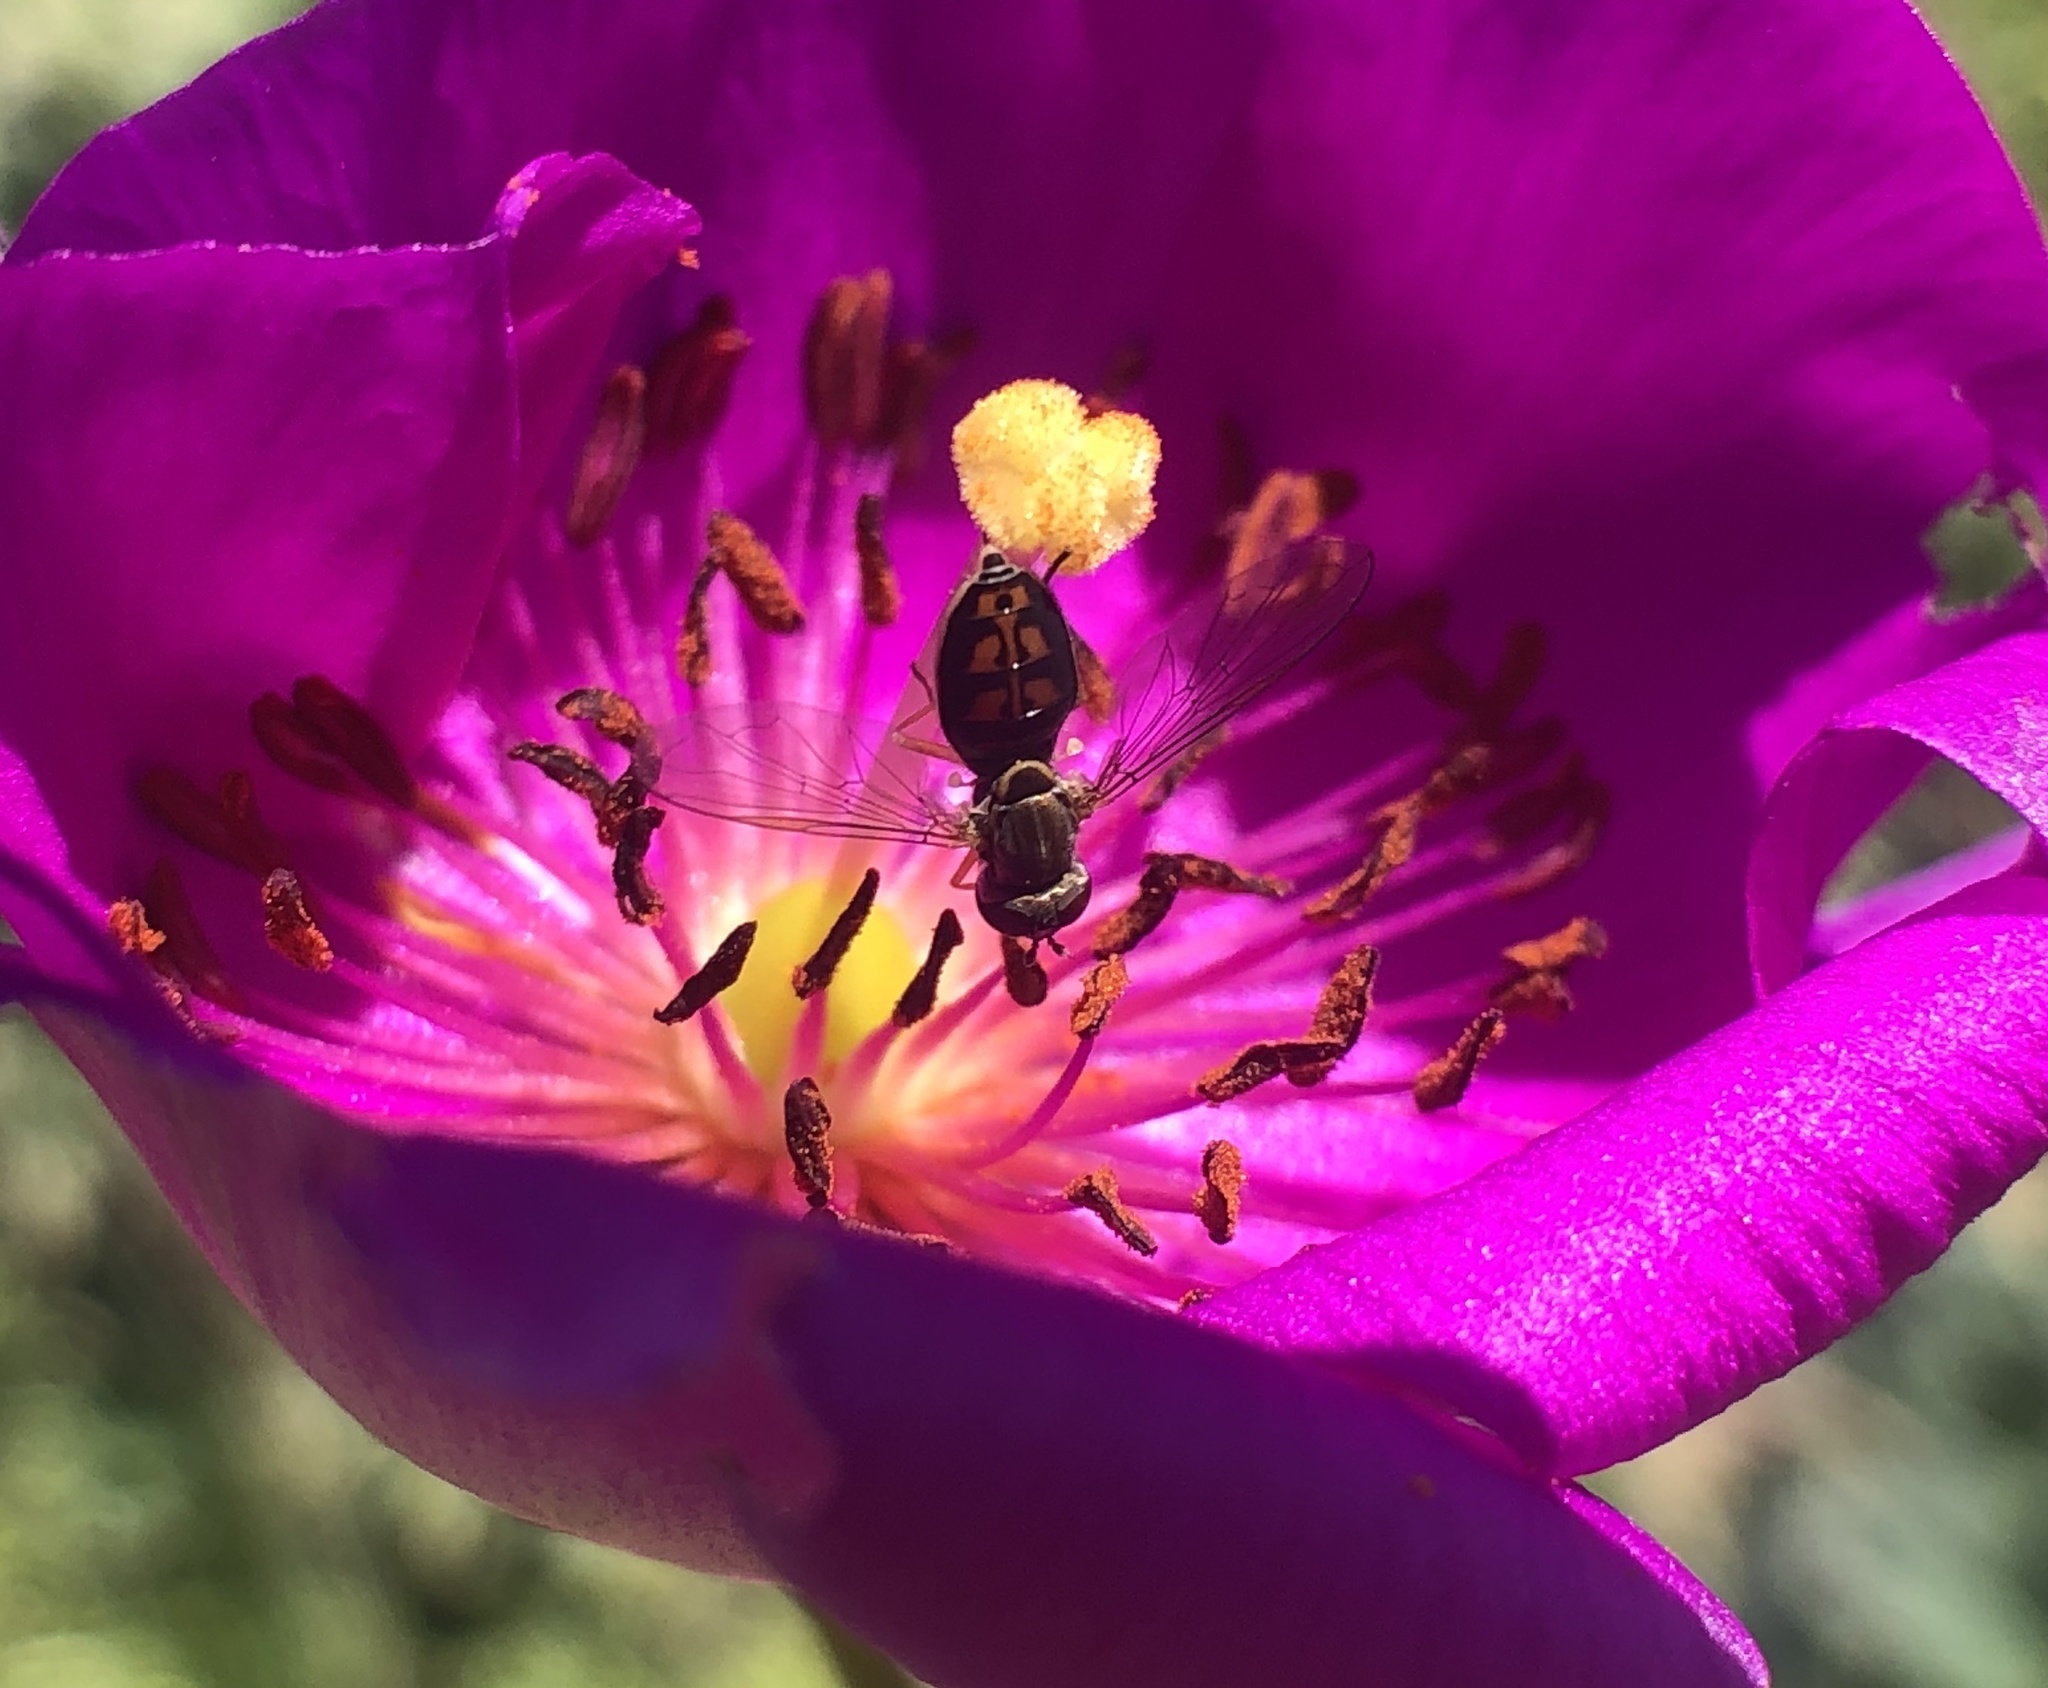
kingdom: Animalia
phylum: Arthropoda
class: Insecta
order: Diptera
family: Syrphidae
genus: Toxomerus
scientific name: Toxomerus marginatus
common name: Syrphid fly
